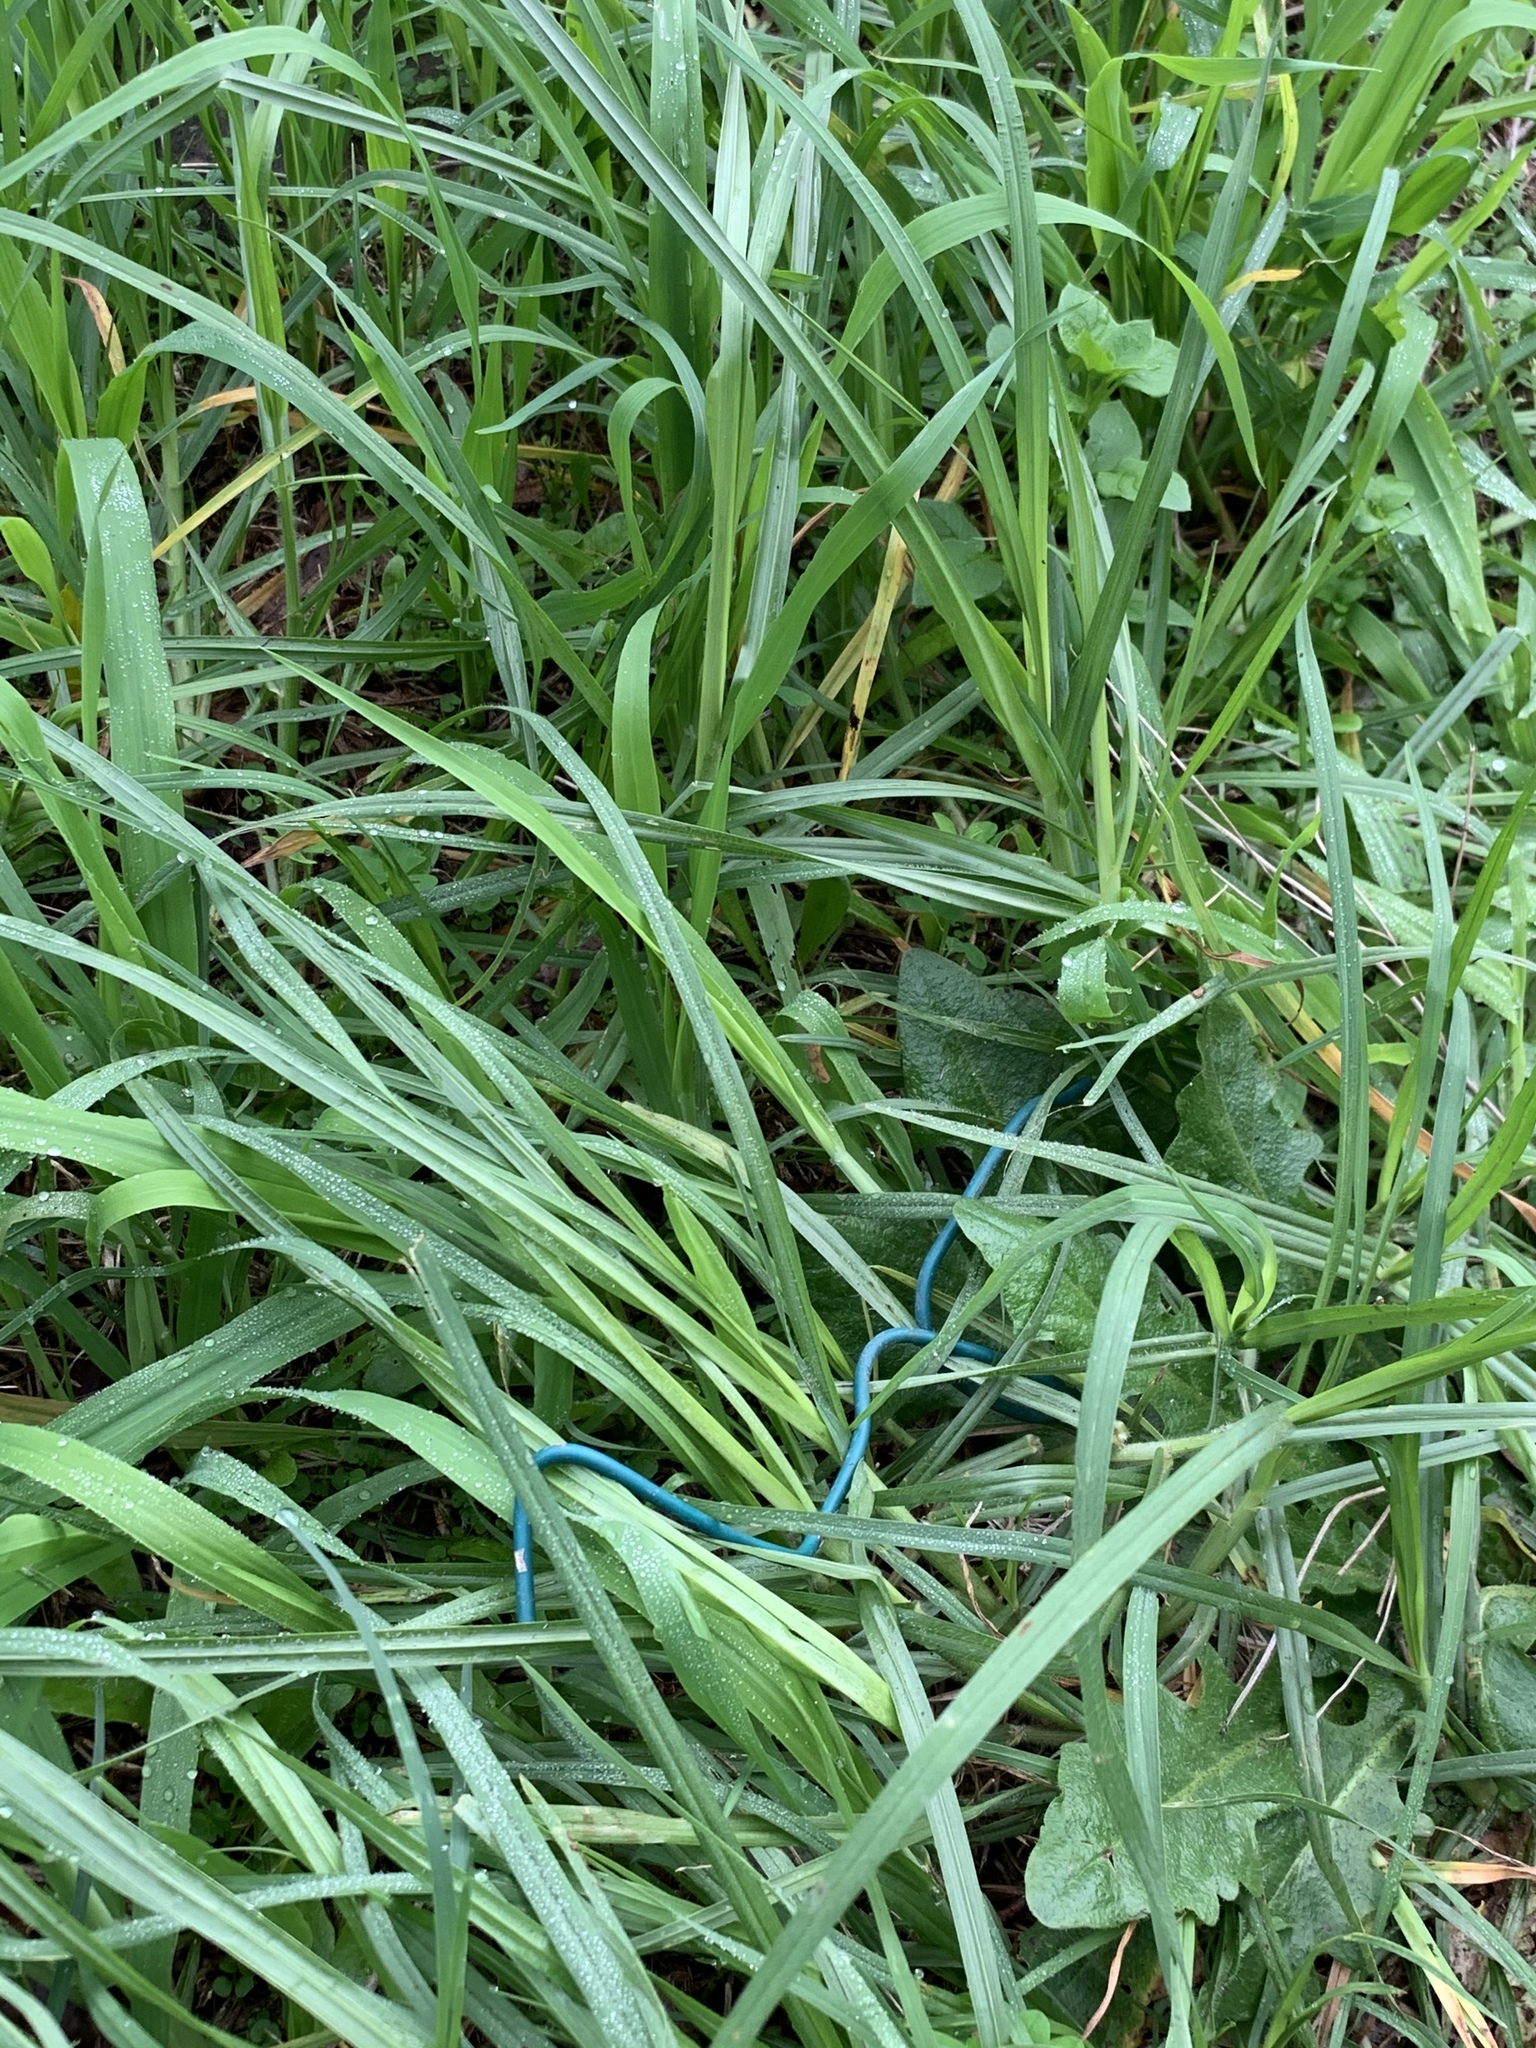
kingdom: Plantae
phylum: Tracheophyta
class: Liliopsida
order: Poales
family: Poaceae
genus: Cenchrus
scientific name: Cenchrus clandestinus
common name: Kikuyugrass
